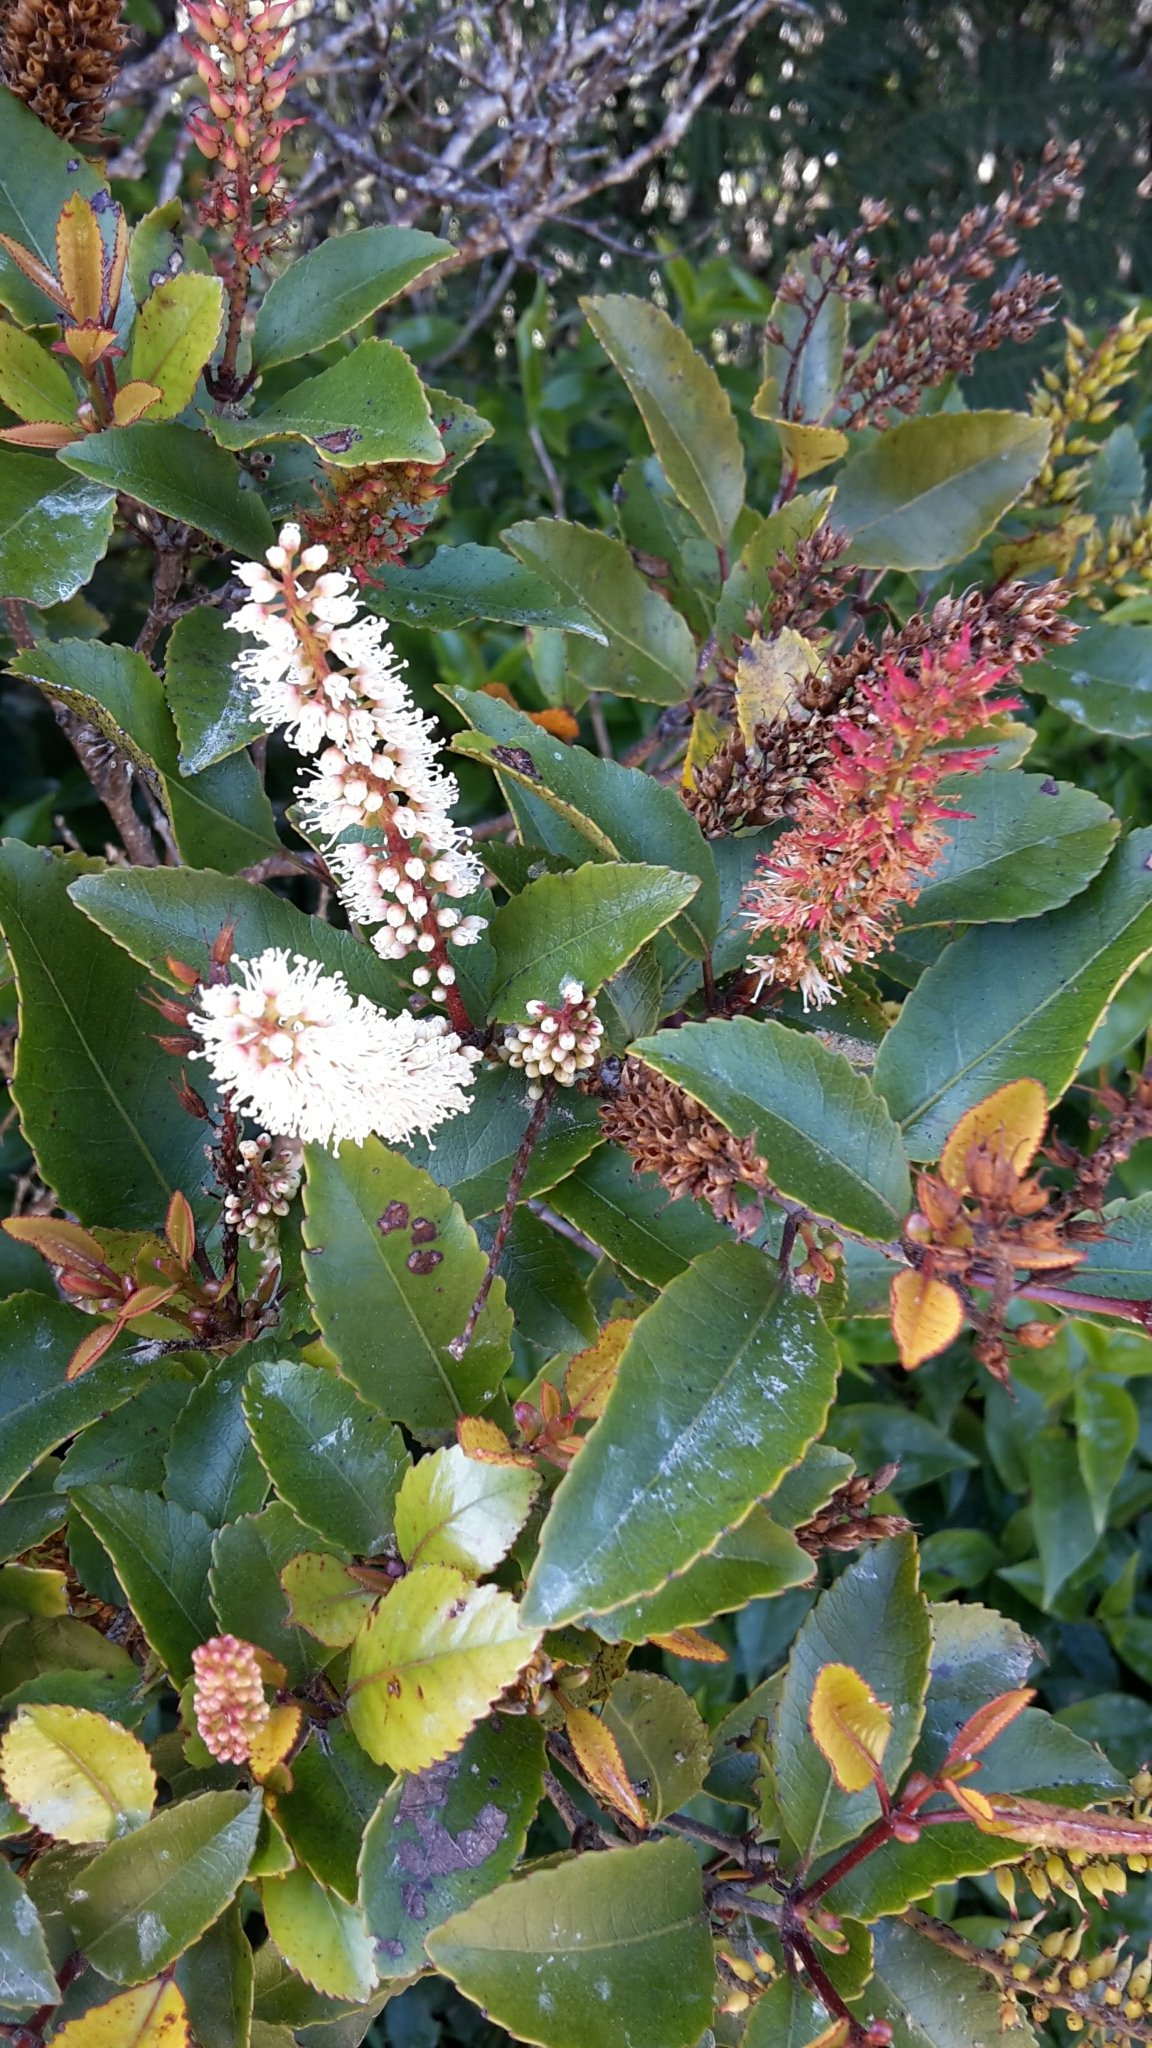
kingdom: Plantae
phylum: Tracheophyta
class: Magnoliopsida
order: Oxalidales
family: Cunoniaceae
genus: Pterophylla
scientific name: Pterophylla racemosa
